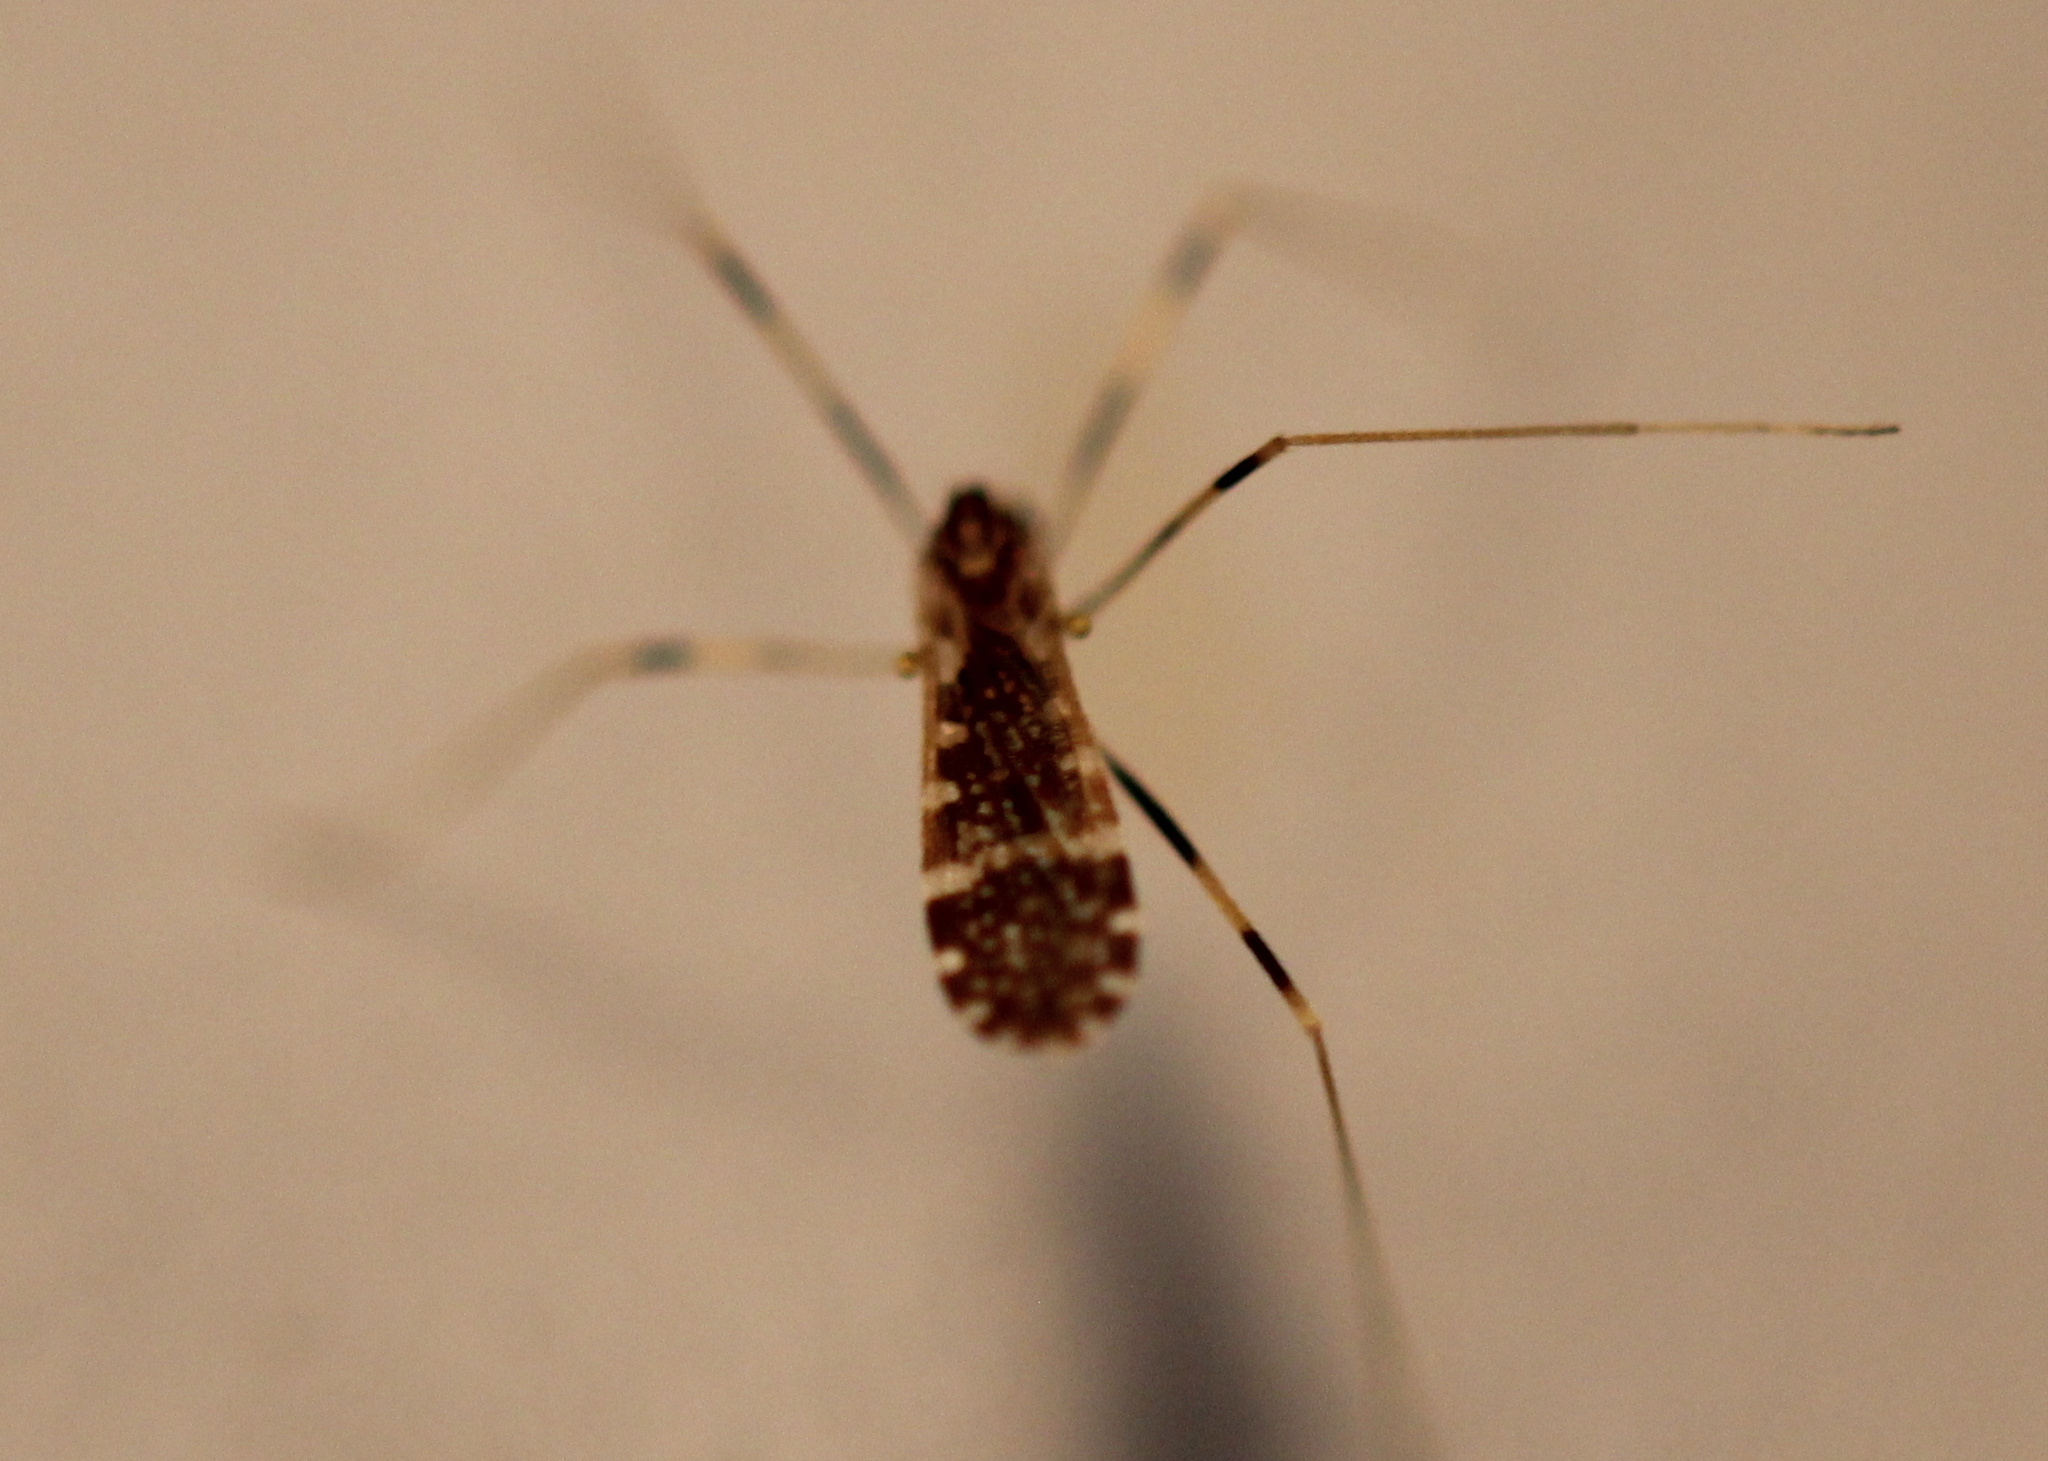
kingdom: Animalia
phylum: Arthropoda
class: Insecta
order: Diptera
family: Limoniidae
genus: Erioptera
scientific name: Erioptera caliptera
